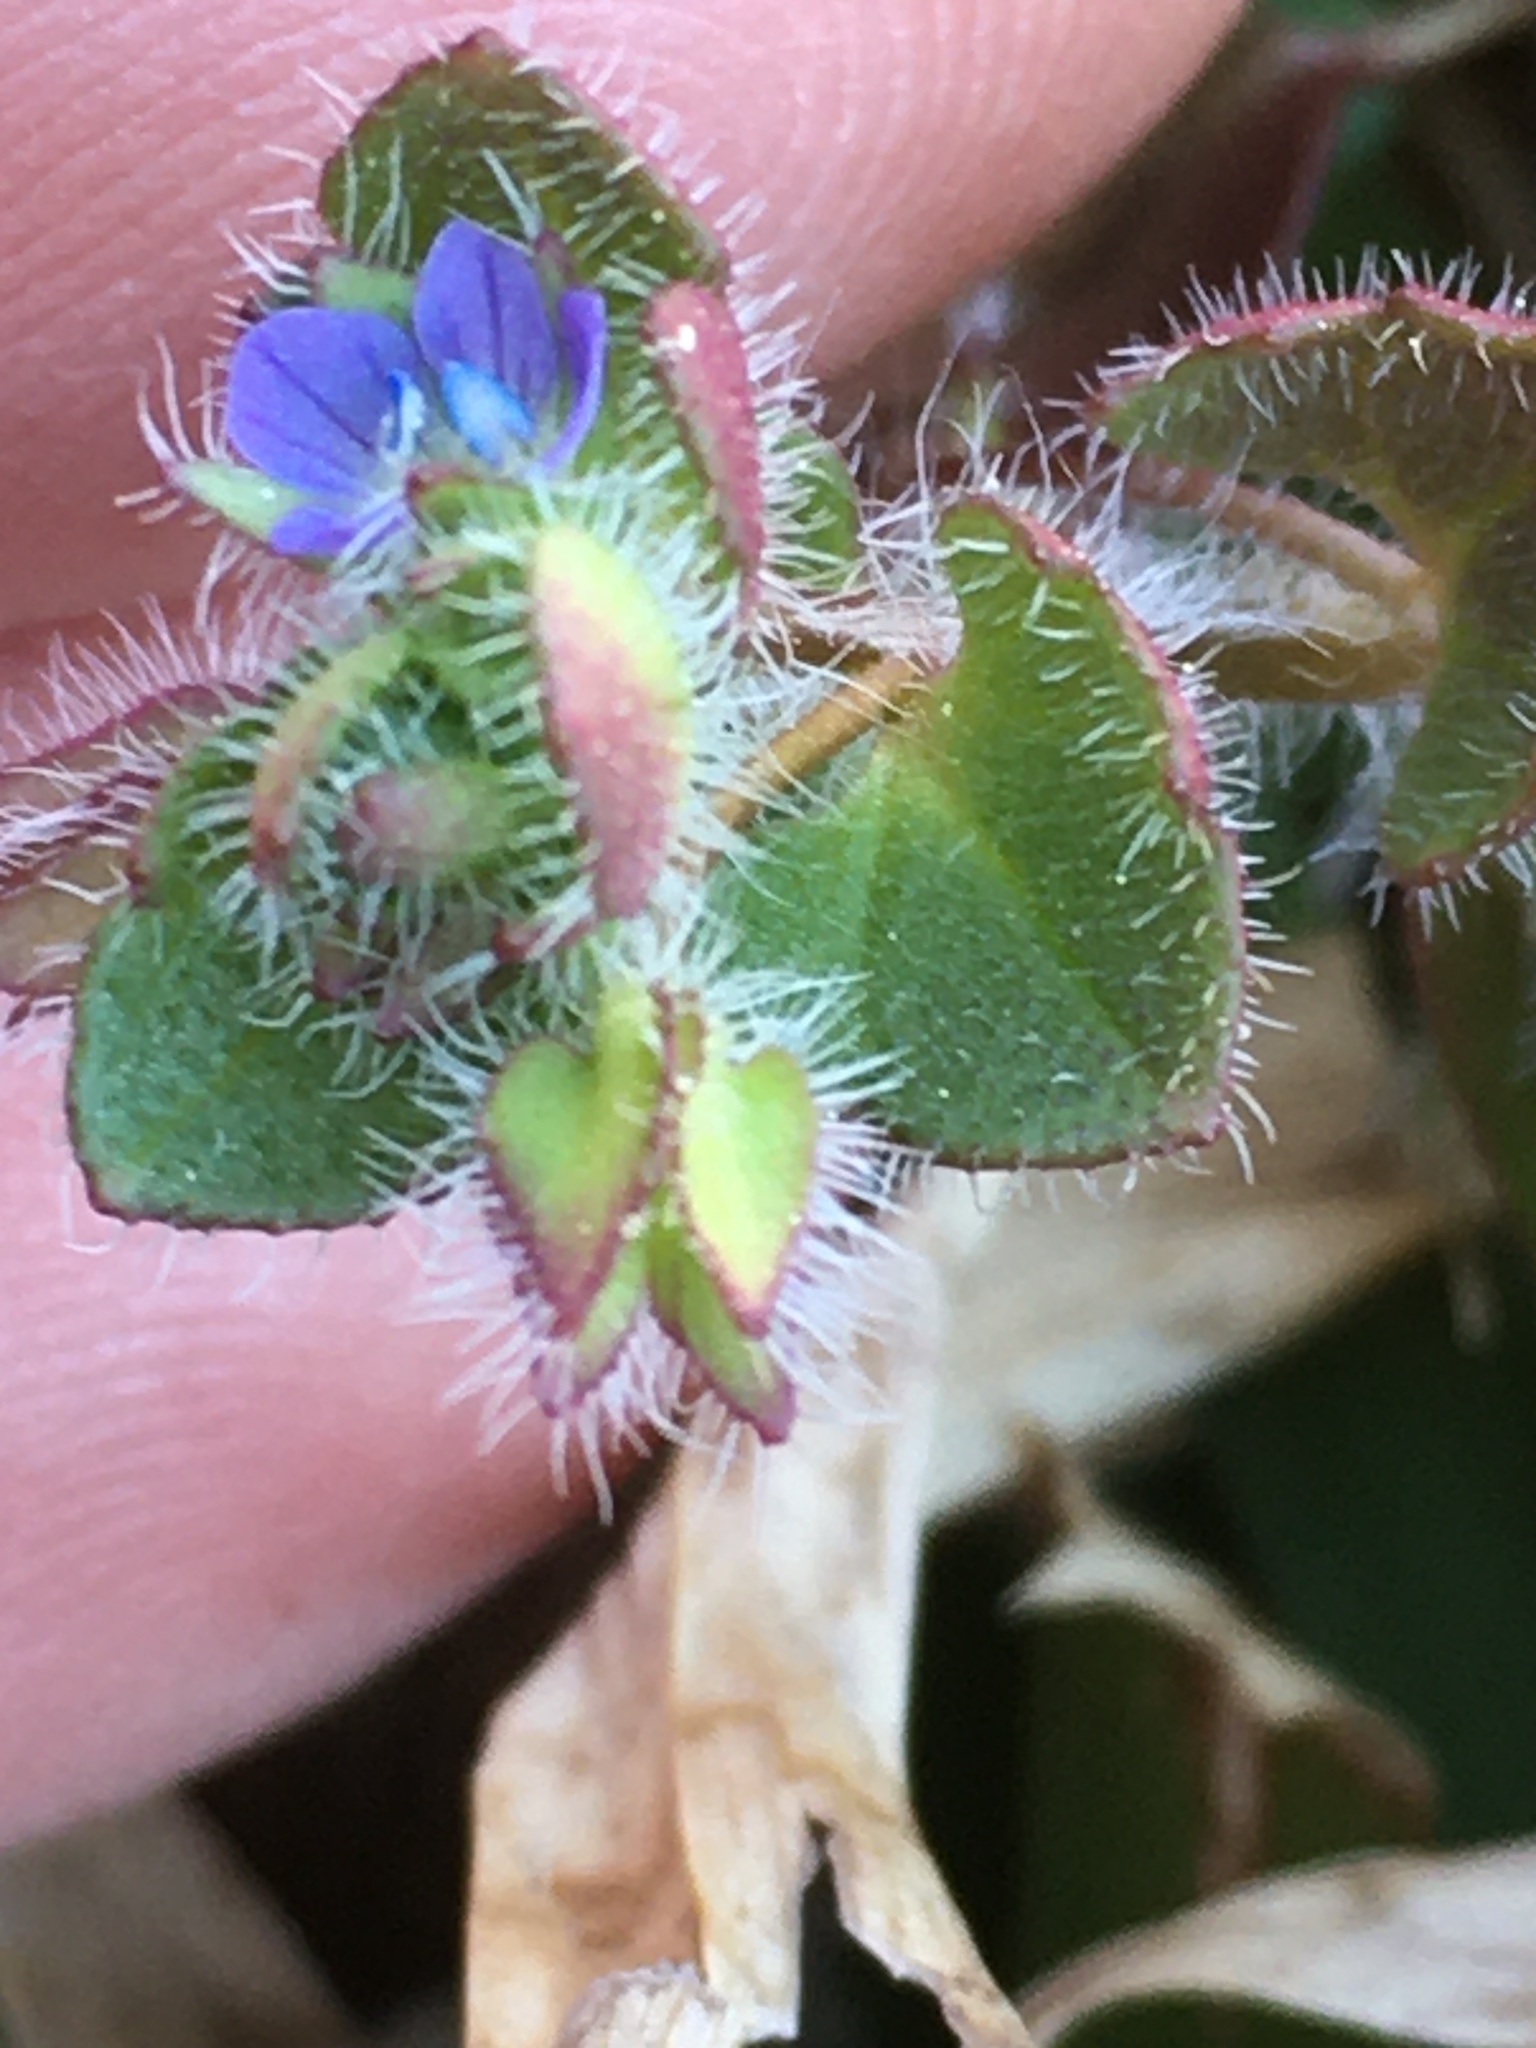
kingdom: Plantae
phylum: Tracheophyta
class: Magnoliopsida
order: Lamiales
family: Plantaginaceae
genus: Veronica
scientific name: Veronica hederifolia
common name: Ivy-leaved speedwell
